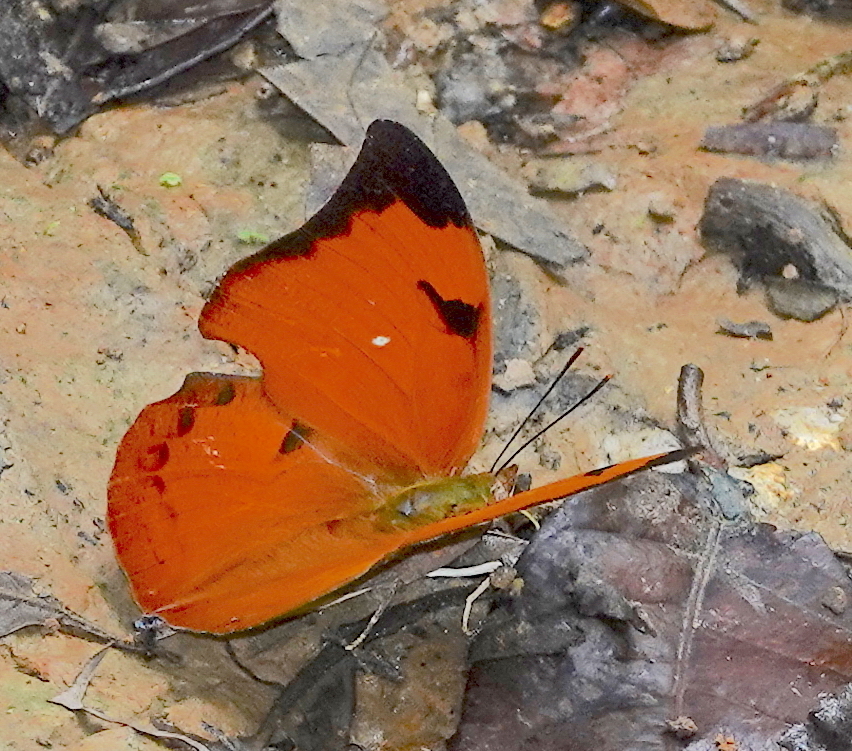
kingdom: Animalia
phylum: Arthropoda
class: Insecta
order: Lepidoptera
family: Nymphalidae
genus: Zaretis
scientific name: Zaretis itys
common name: Skeletonized leafwing
